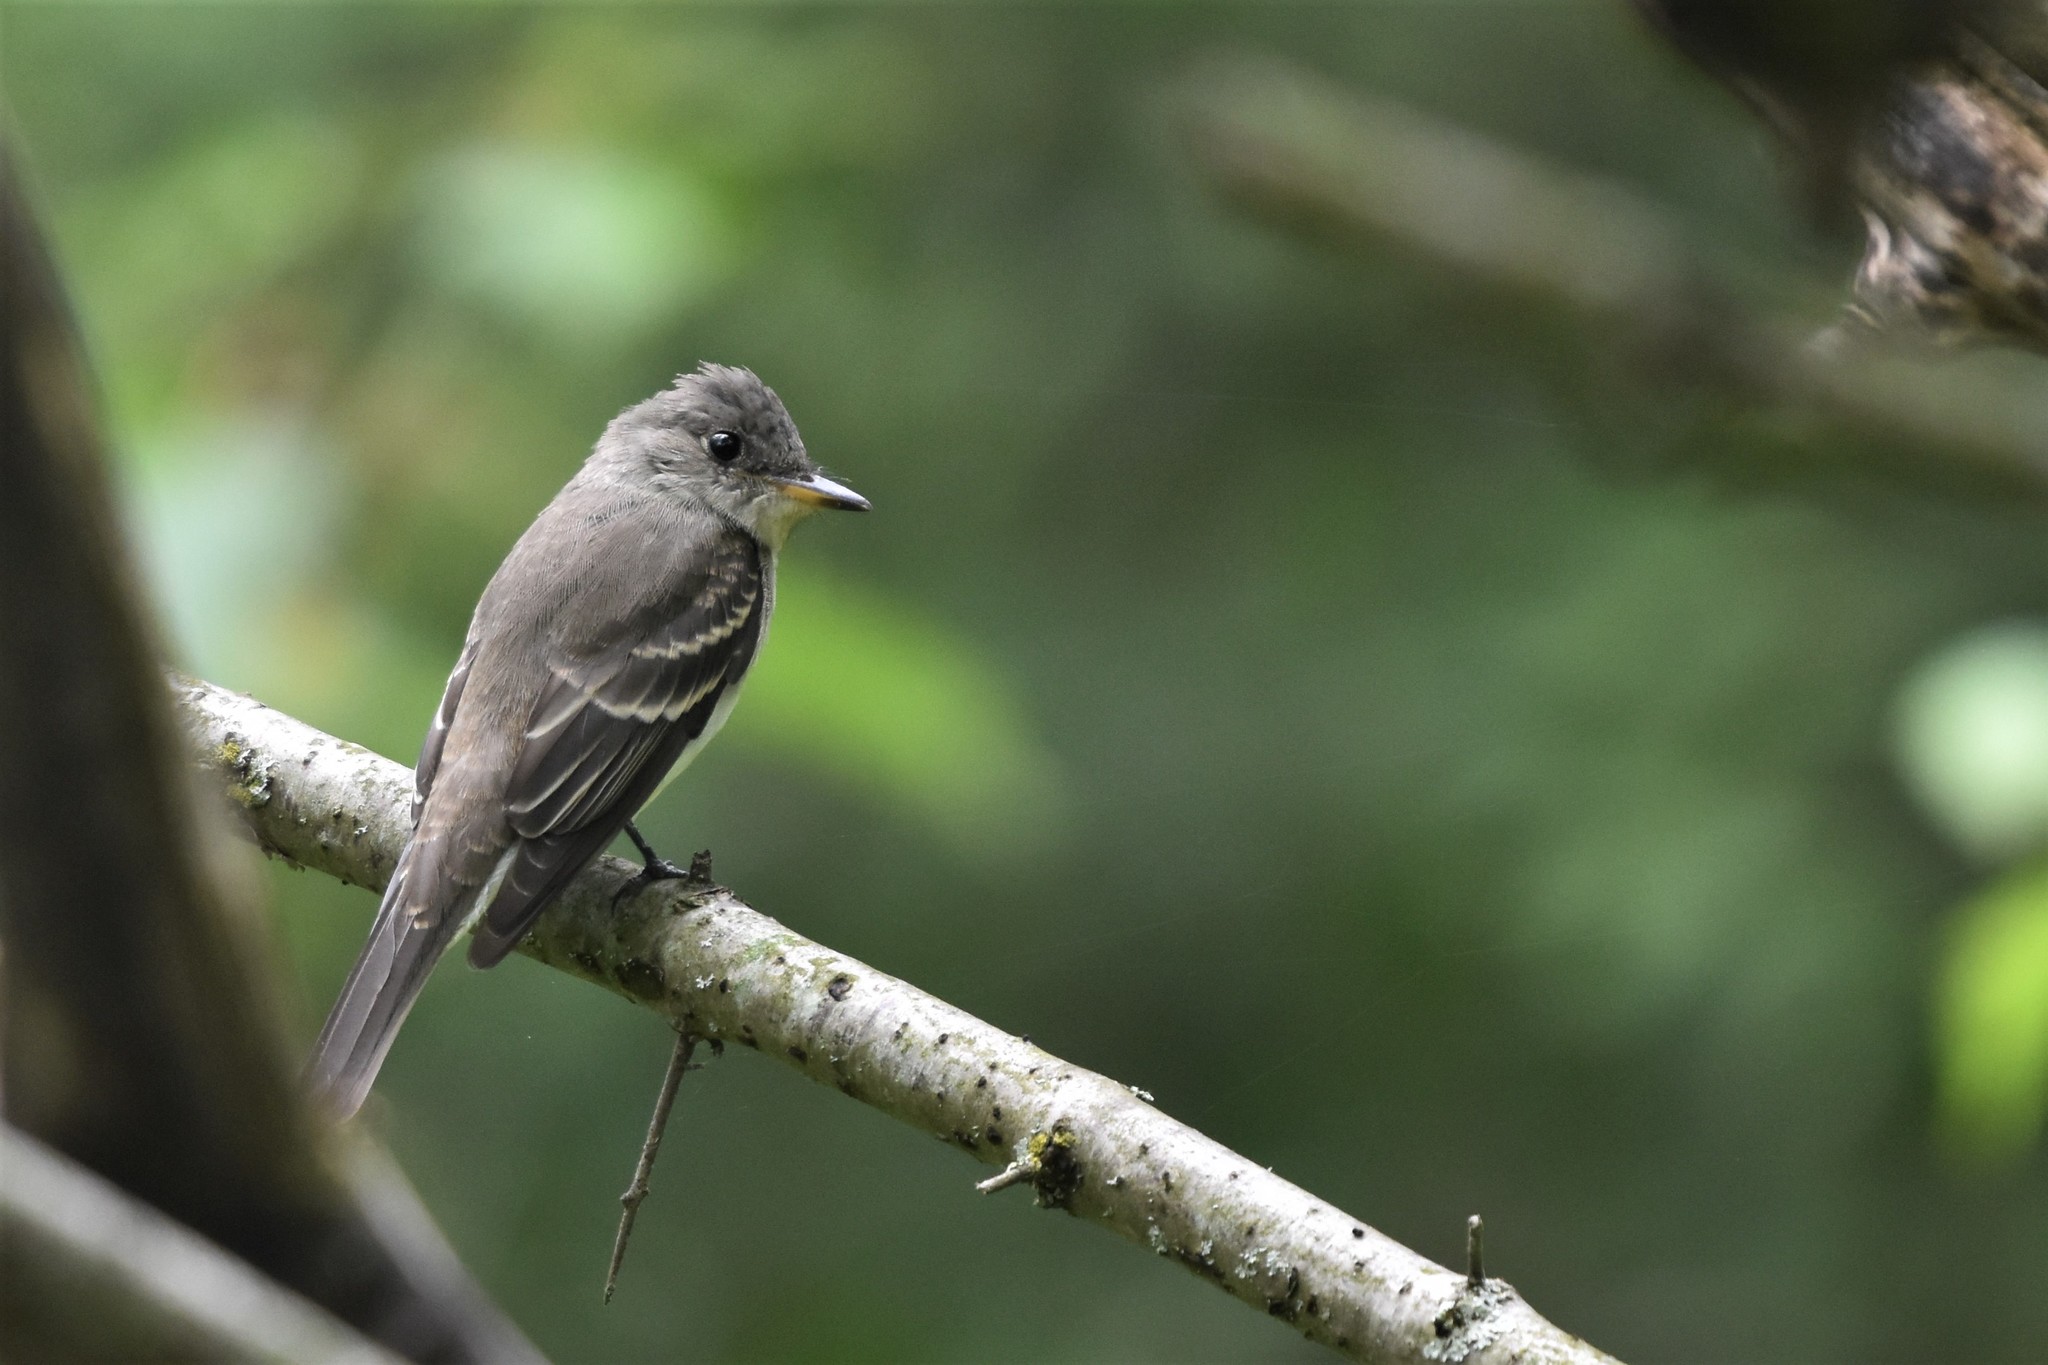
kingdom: Animalia
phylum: Chordata
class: Aves
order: Passeriformes
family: Tyrannidae
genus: Contopus
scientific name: Contopus virens
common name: Eastern wood-pewee
